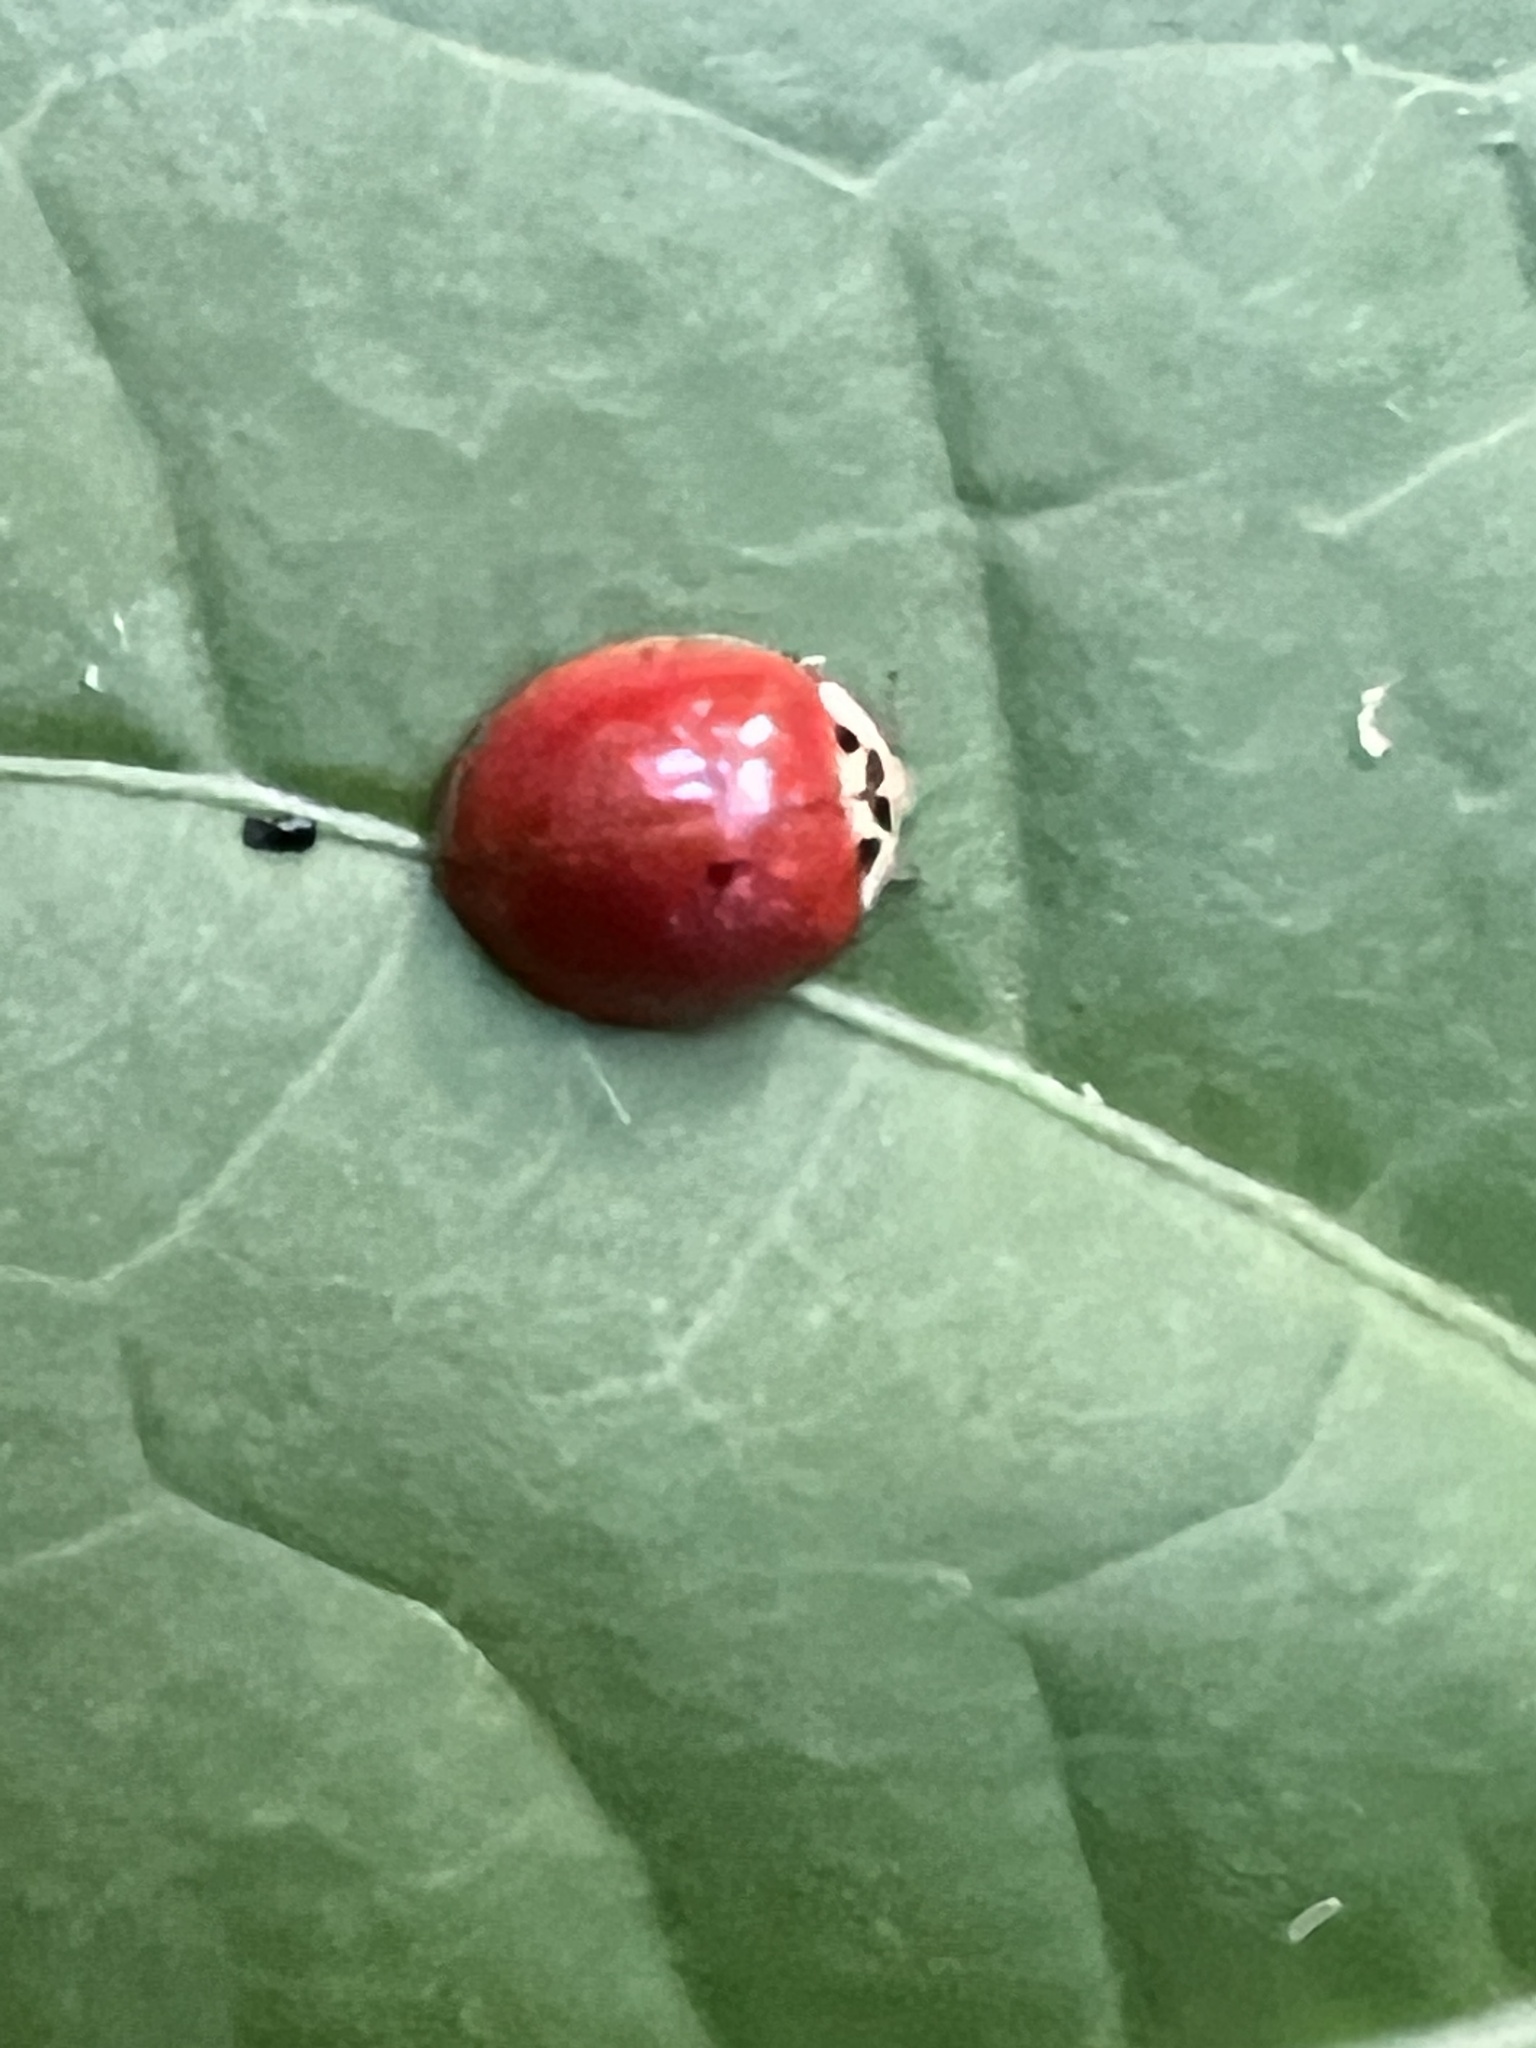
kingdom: Animalia
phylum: Arthropoda
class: Insecta
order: Coleoptera
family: Coccinellidae
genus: Harmonia
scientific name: Harmonia axyridis
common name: Harlequin ladybird
